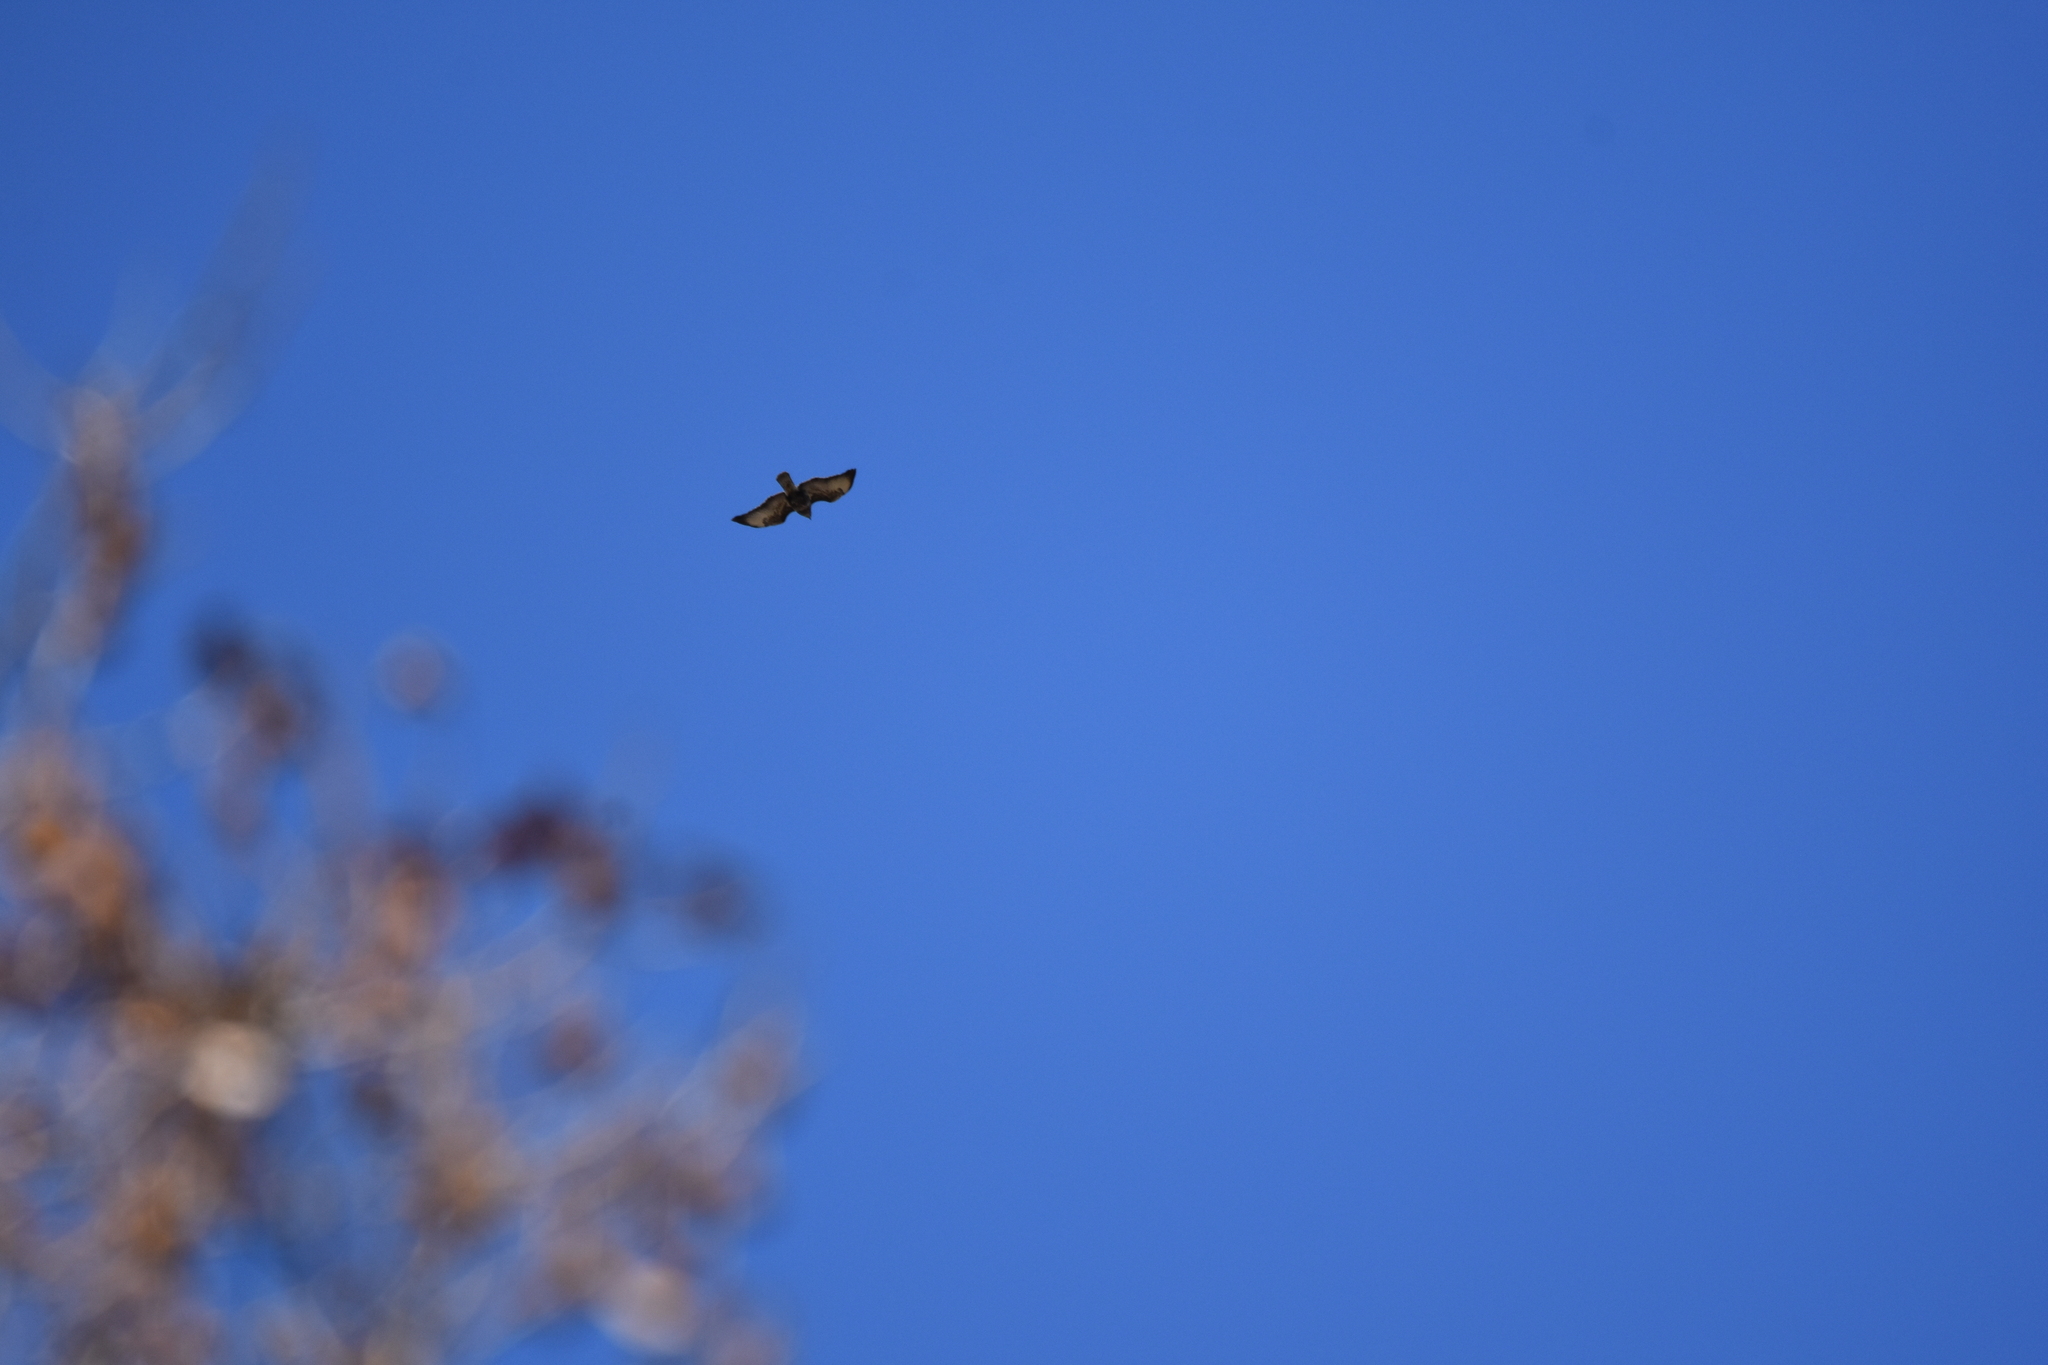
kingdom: Animalia
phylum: Chordata
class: Aves
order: Accipitriformes
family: Accipitridae
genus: Buteo
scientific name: Buteo buteo
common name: Common buzzard
